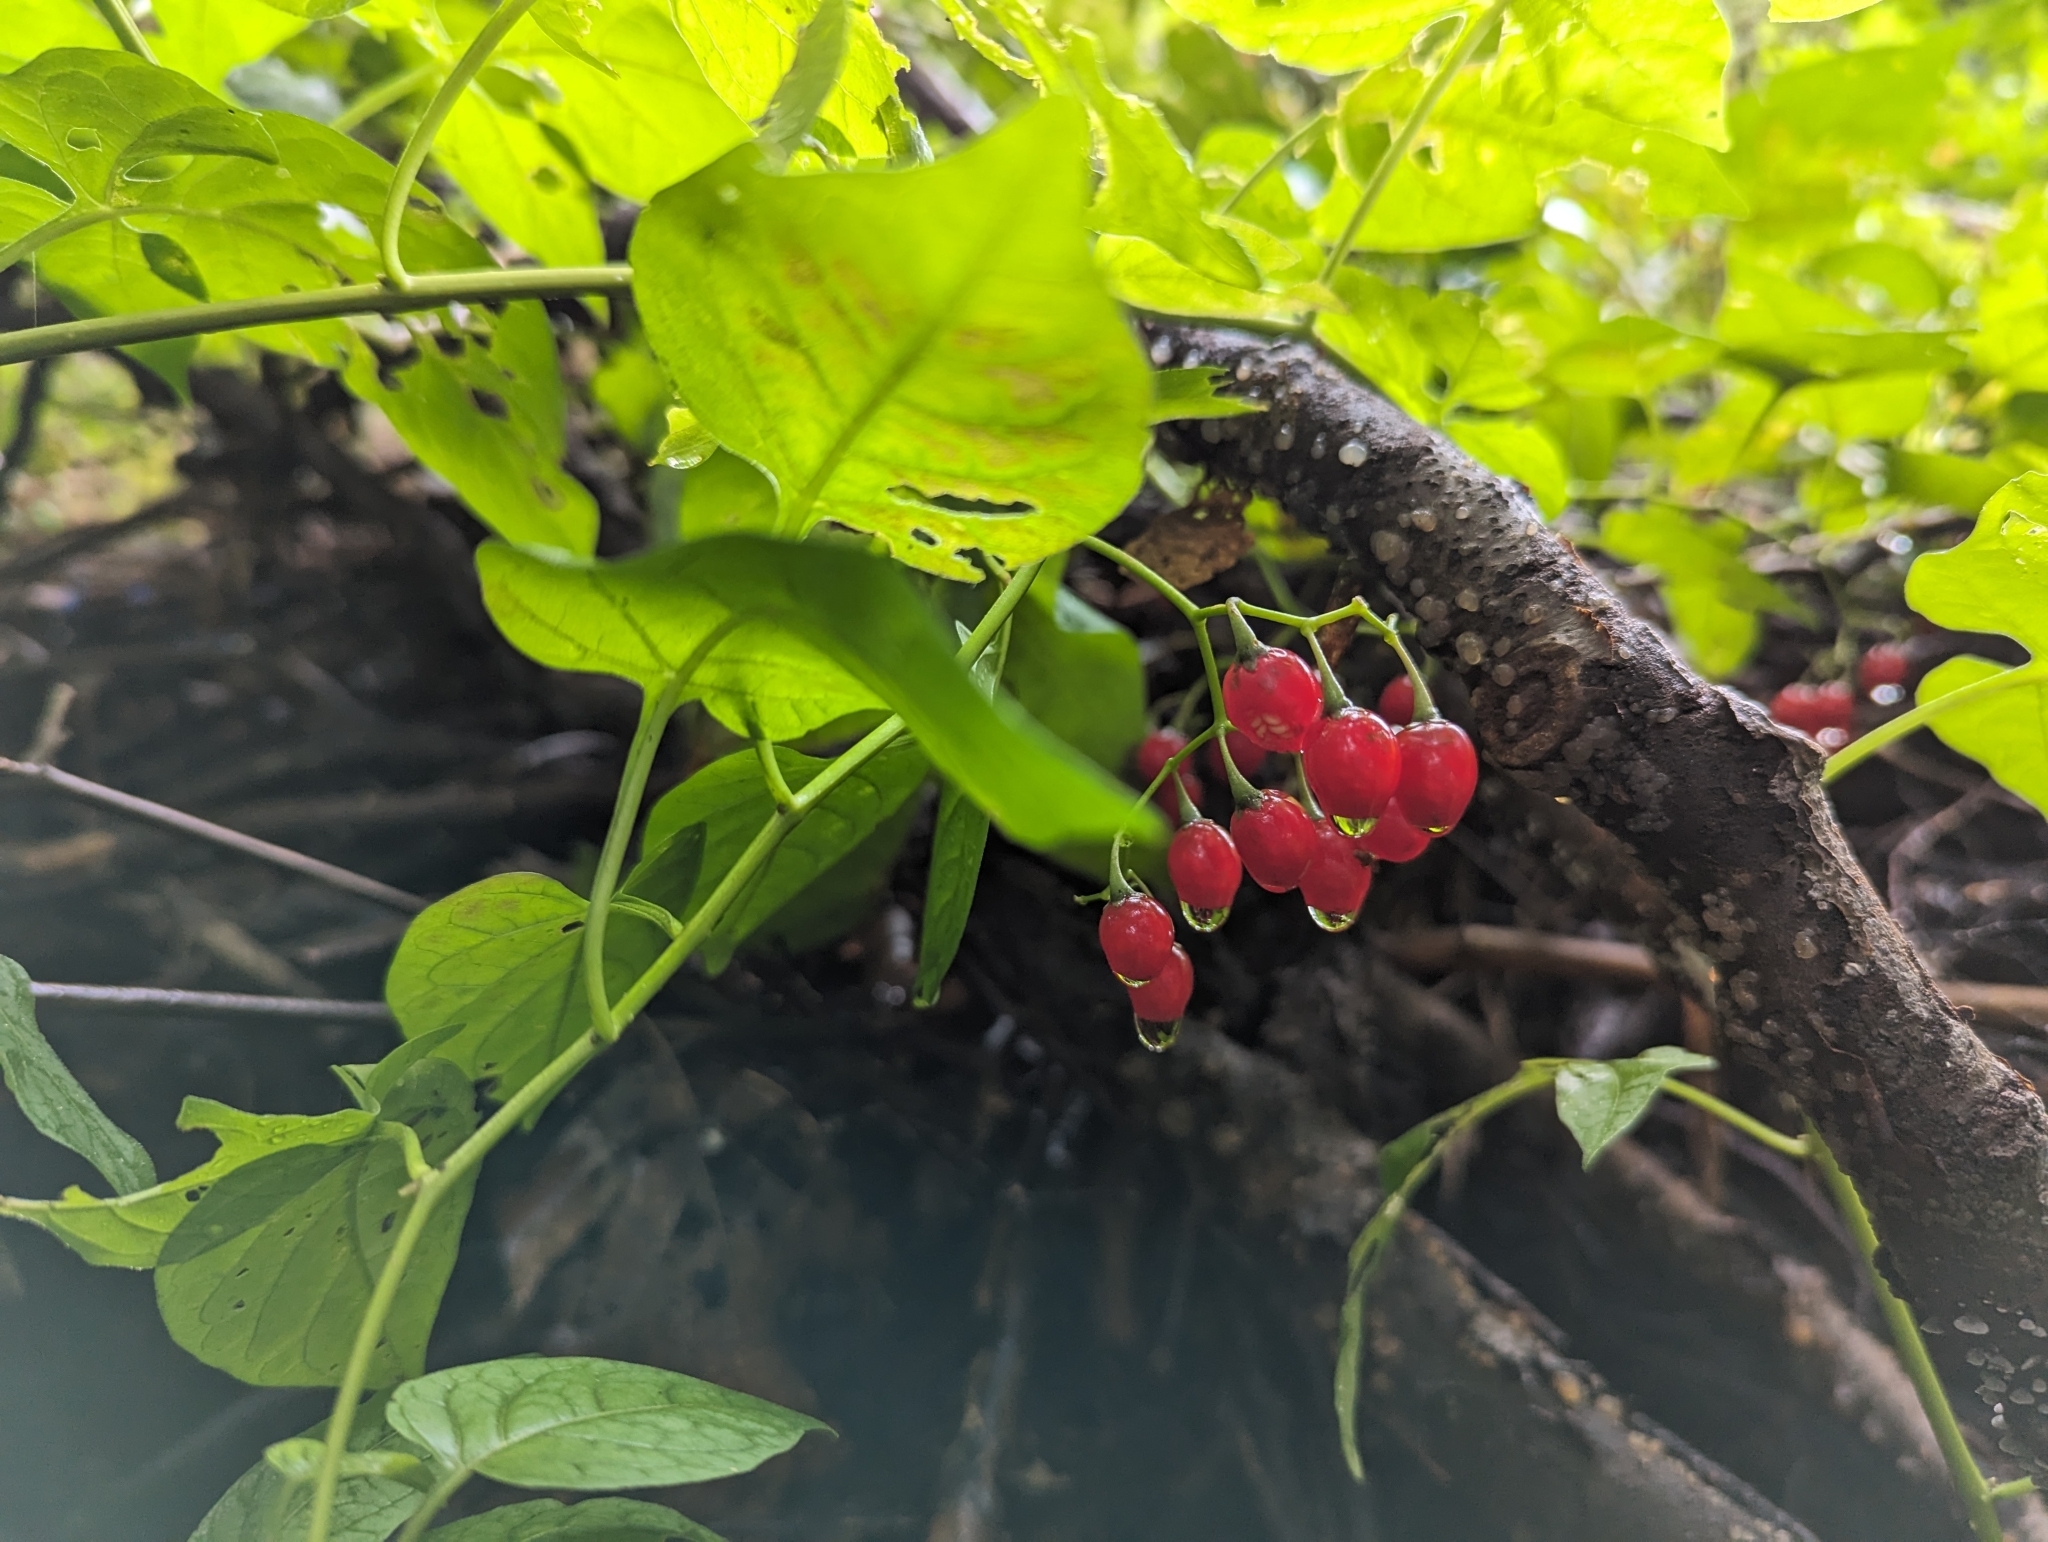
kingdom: Plantae
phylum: Tracheophyta
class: Magnoliopsida
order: Solanales
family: Solanaceae
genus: Solanum
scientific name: Solanum dulcamara
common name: Climbing nightshade
